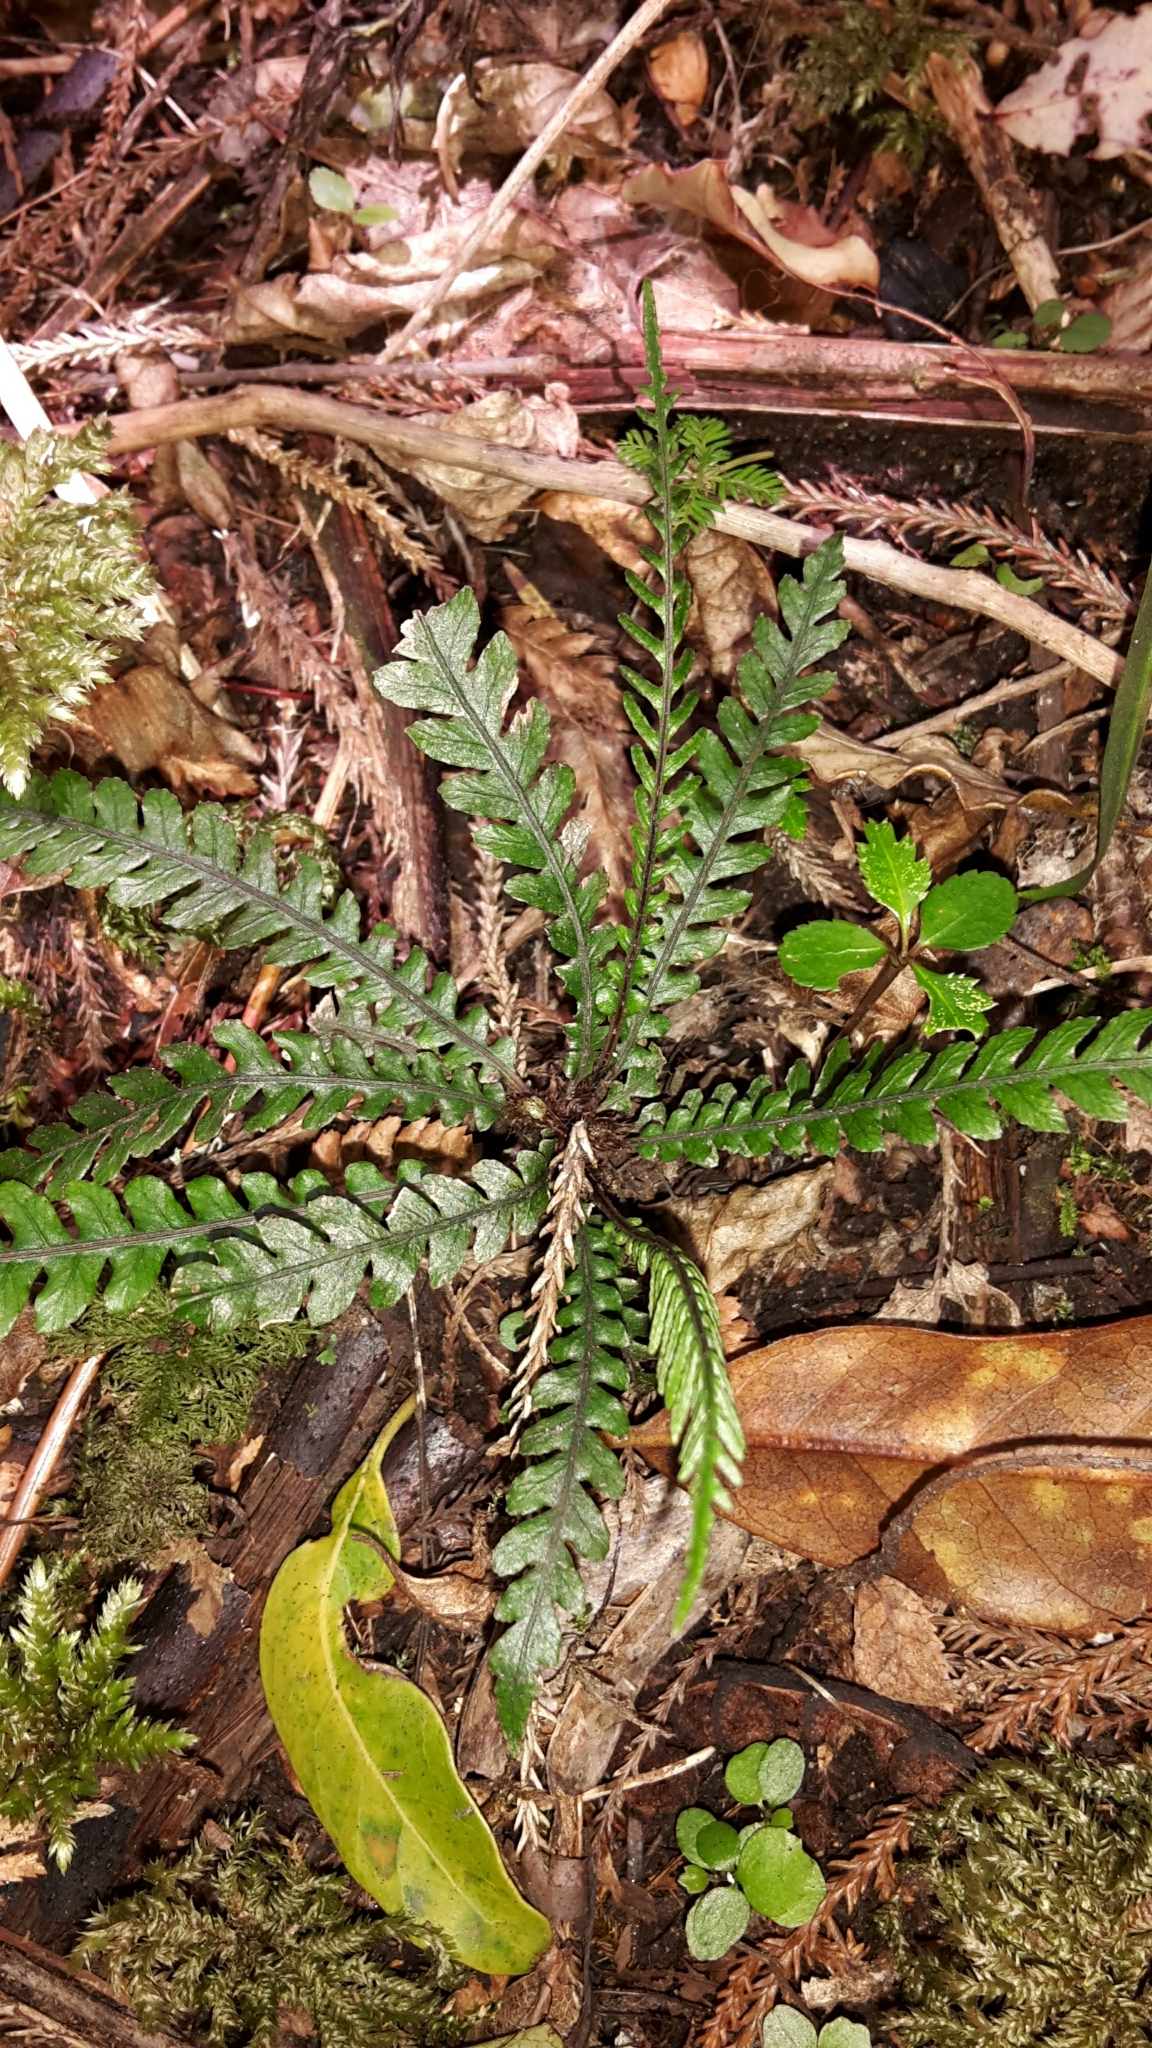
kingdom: Plantae
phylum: Tracheophyta
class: Polypodiopsida
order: Polypodiales
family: Blechnaceae
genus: Austroblechnum
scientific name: Austroblechnum membranaceum
